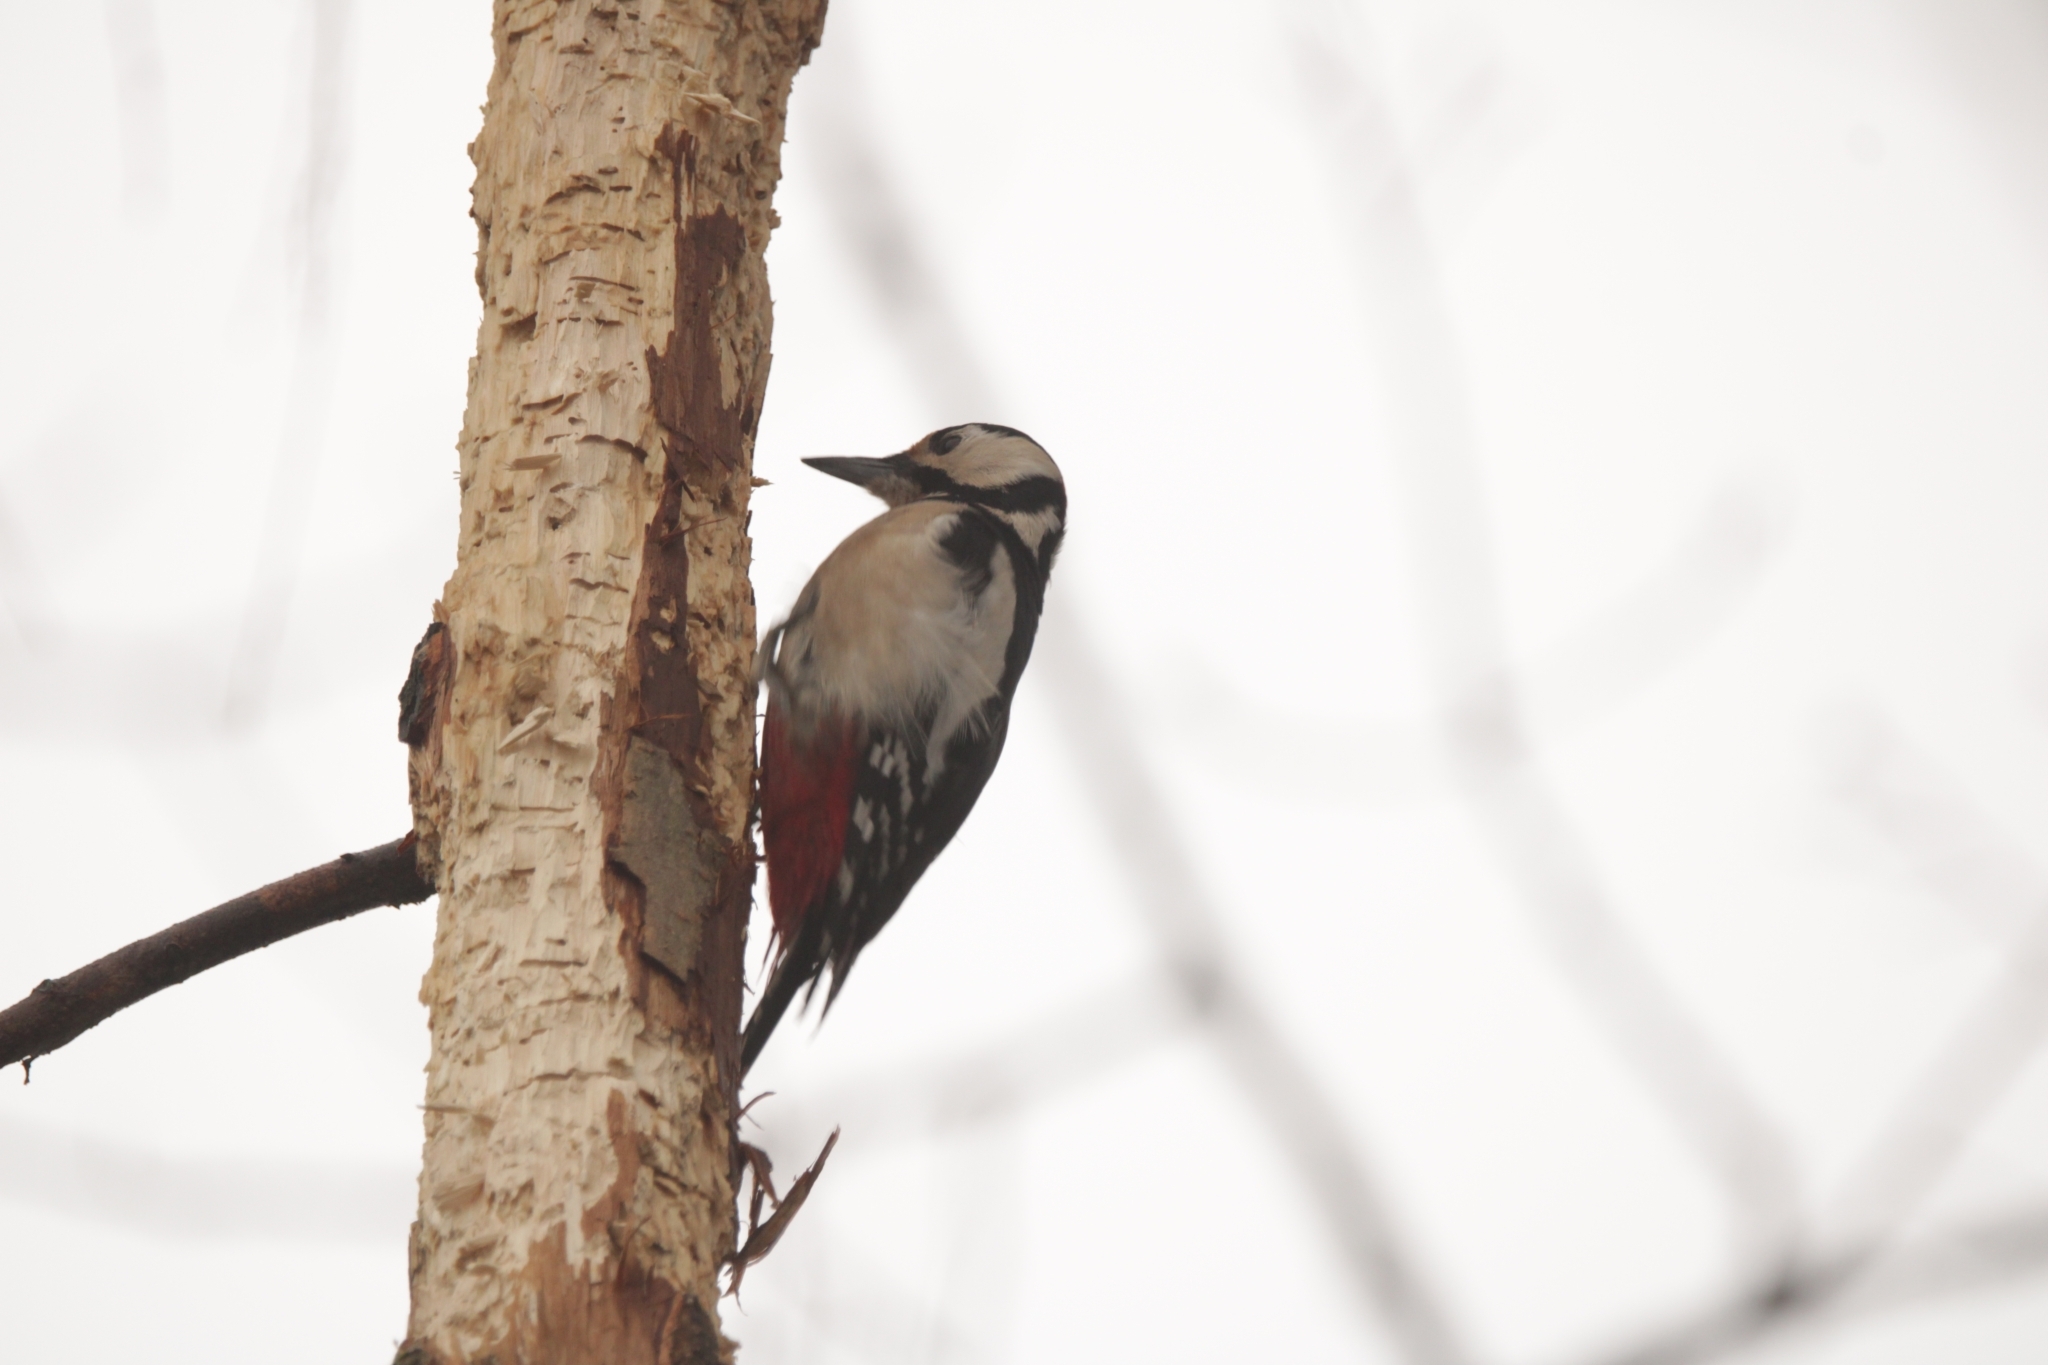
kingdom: Animalia
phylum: Chordata
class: Aves
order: Piciformes
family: Picidae
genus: Dendrocopos
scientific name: Dendrocopos major
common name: Great spotted woodpecker
